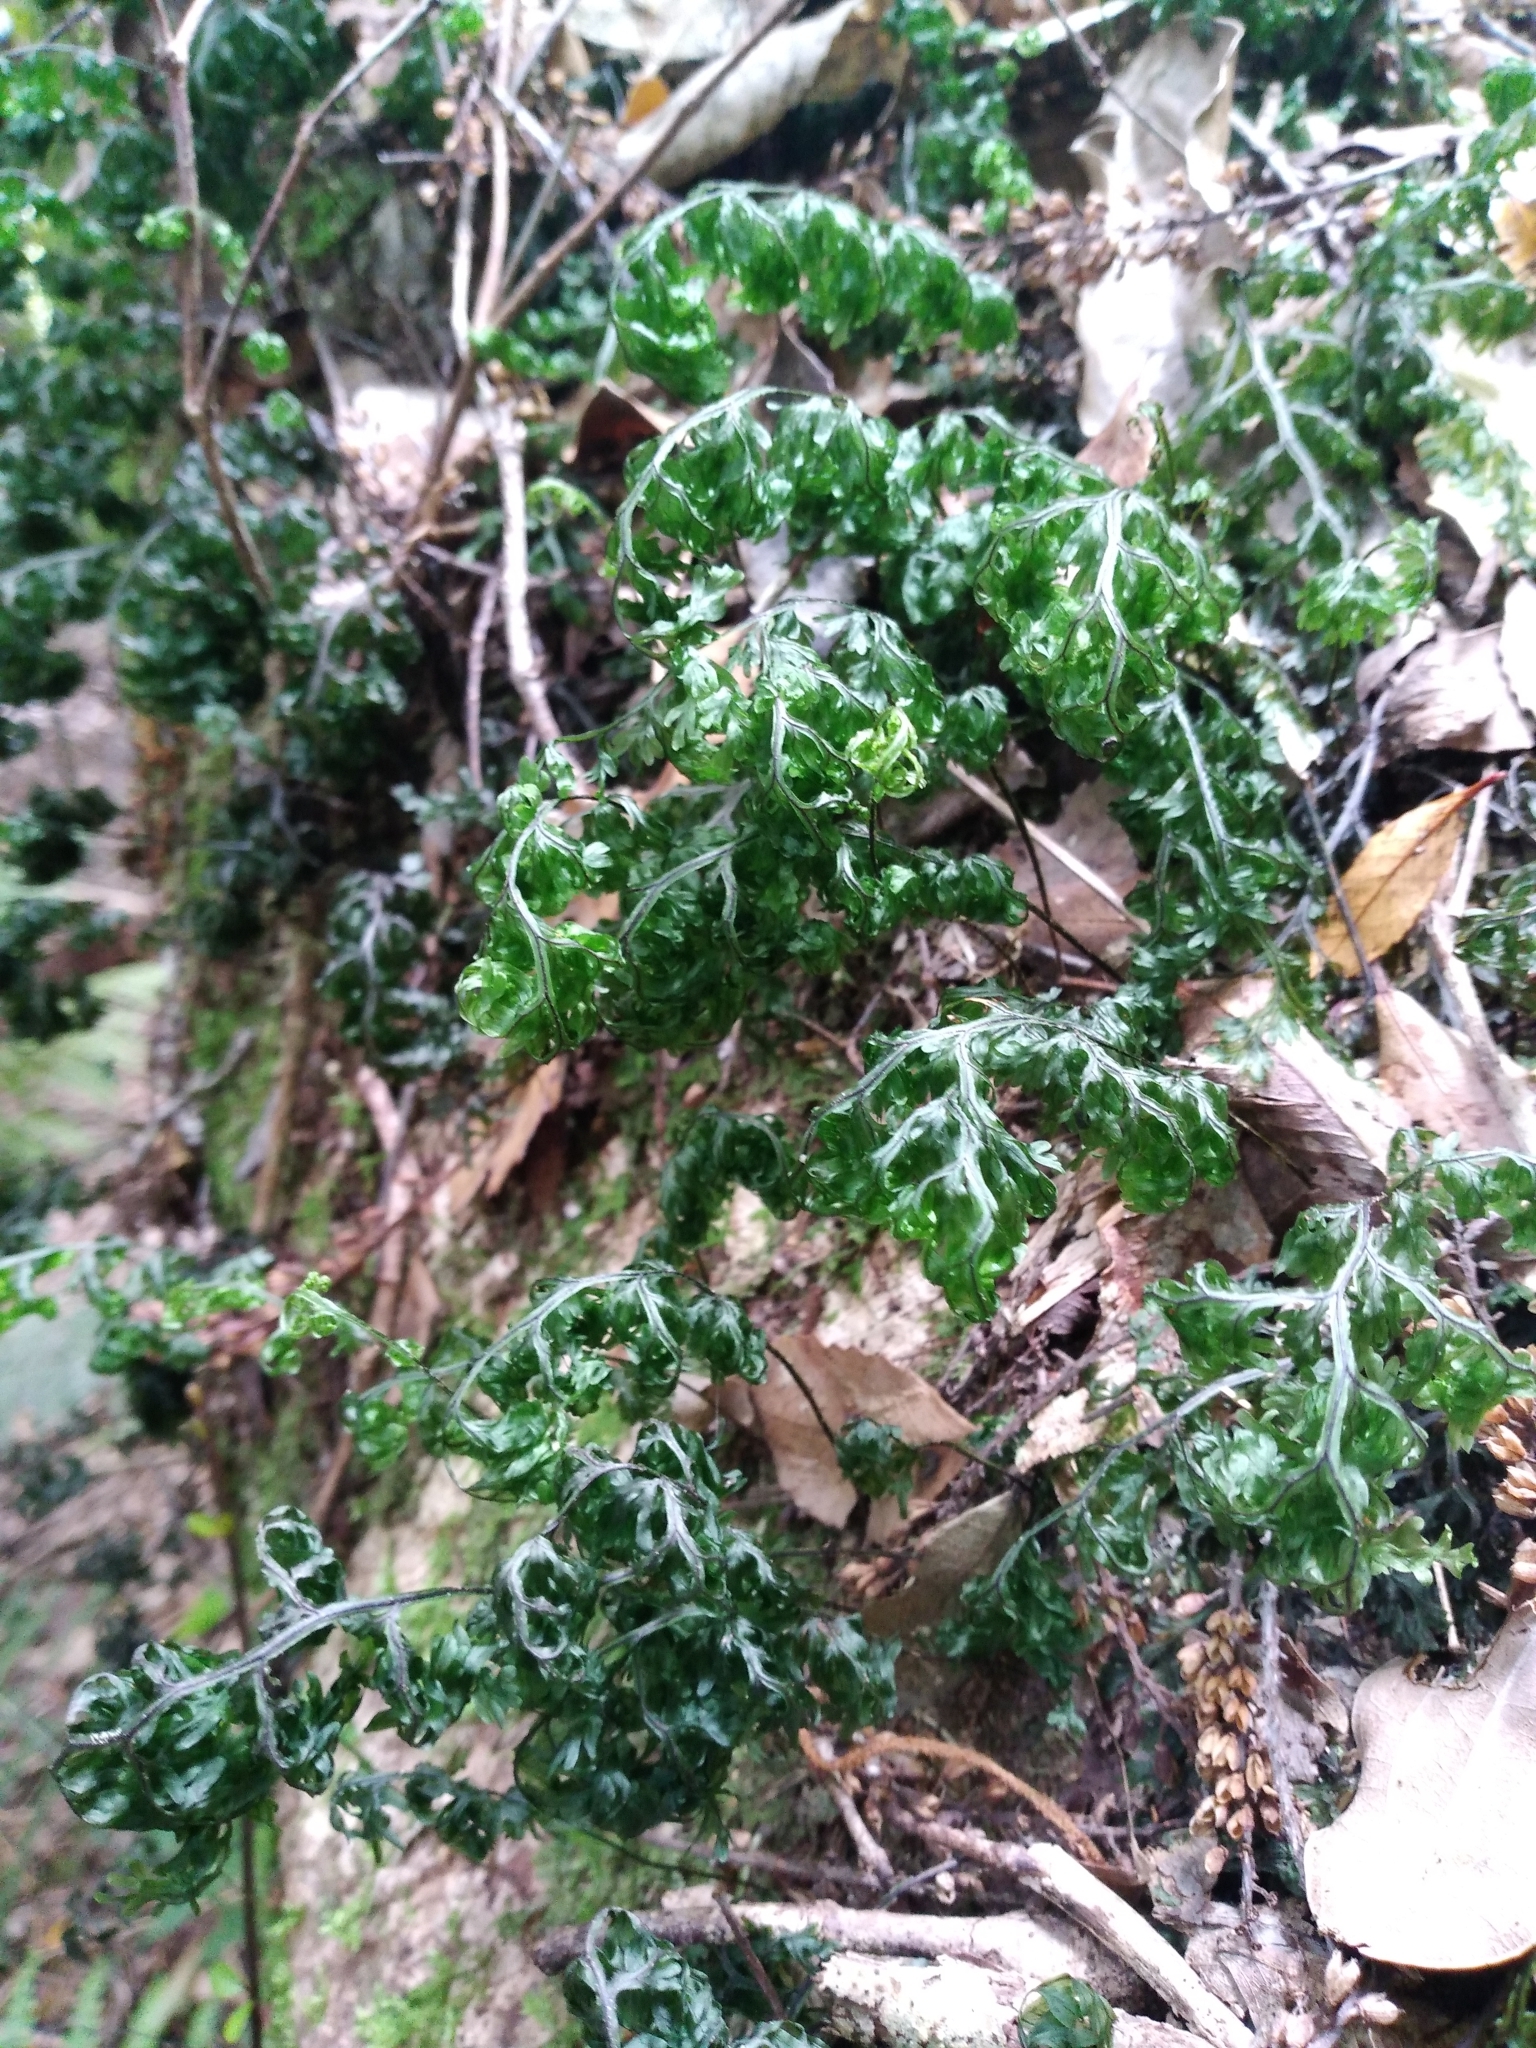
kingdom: Plantae
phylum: Tracheophyta
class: Polypodiopsida
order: Hymenophyllales
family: Hymenophyllaceae
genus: Hymenophyllum
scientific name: Hymenophyllum sanguinolentum
